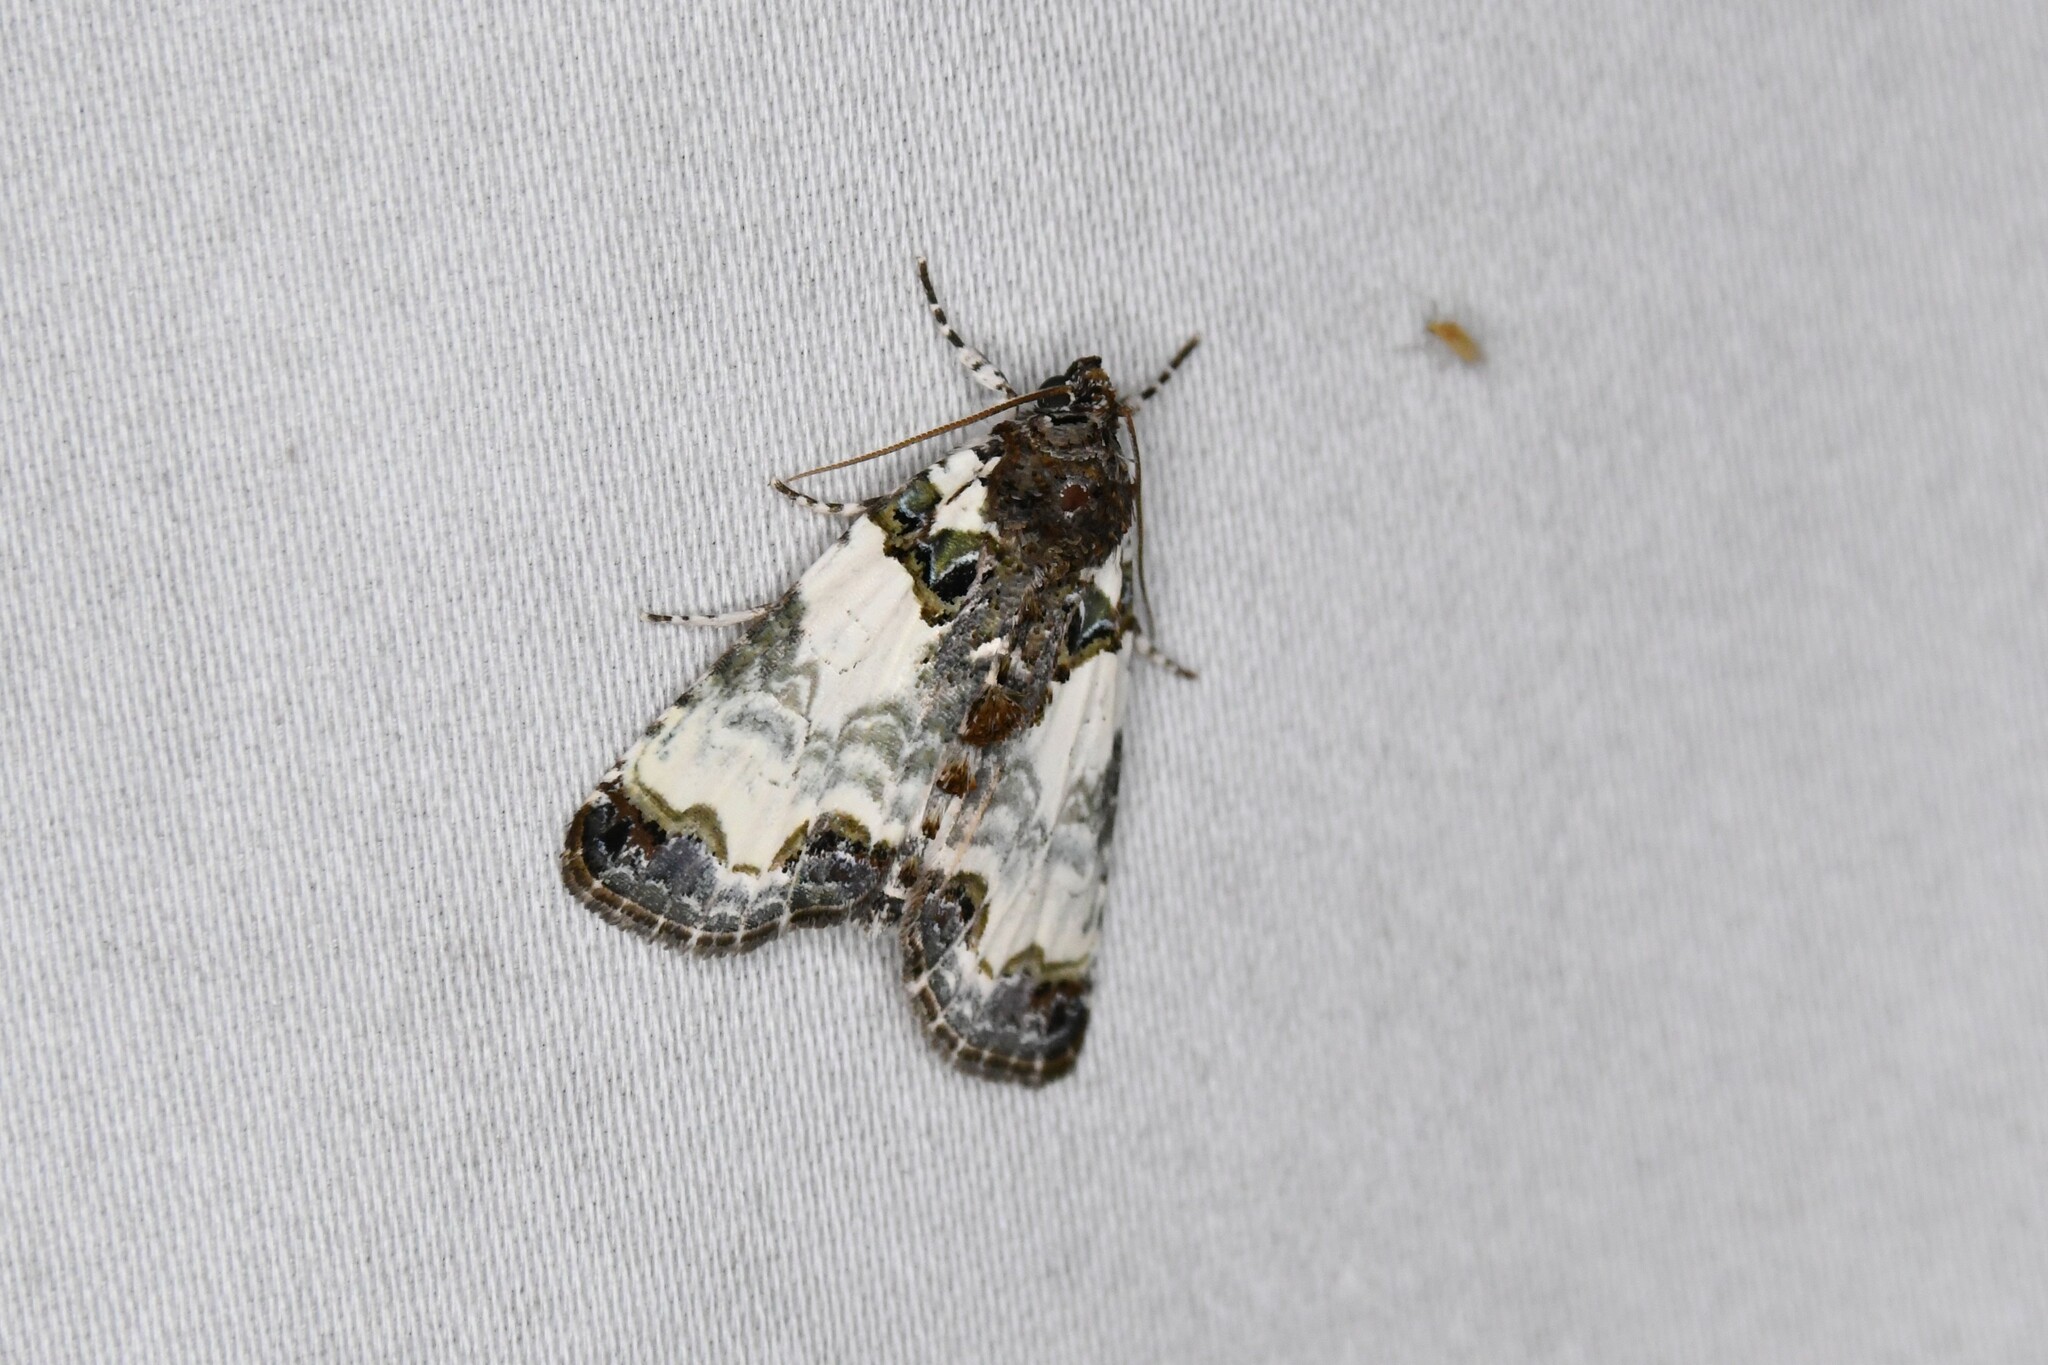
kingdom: Animalia
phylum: Arthropoda
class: Insecta
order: Lepidoptera
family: Noctuidae
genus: Cerma
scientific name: Cerma cerintha
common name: Tufted bird-dropping moth
